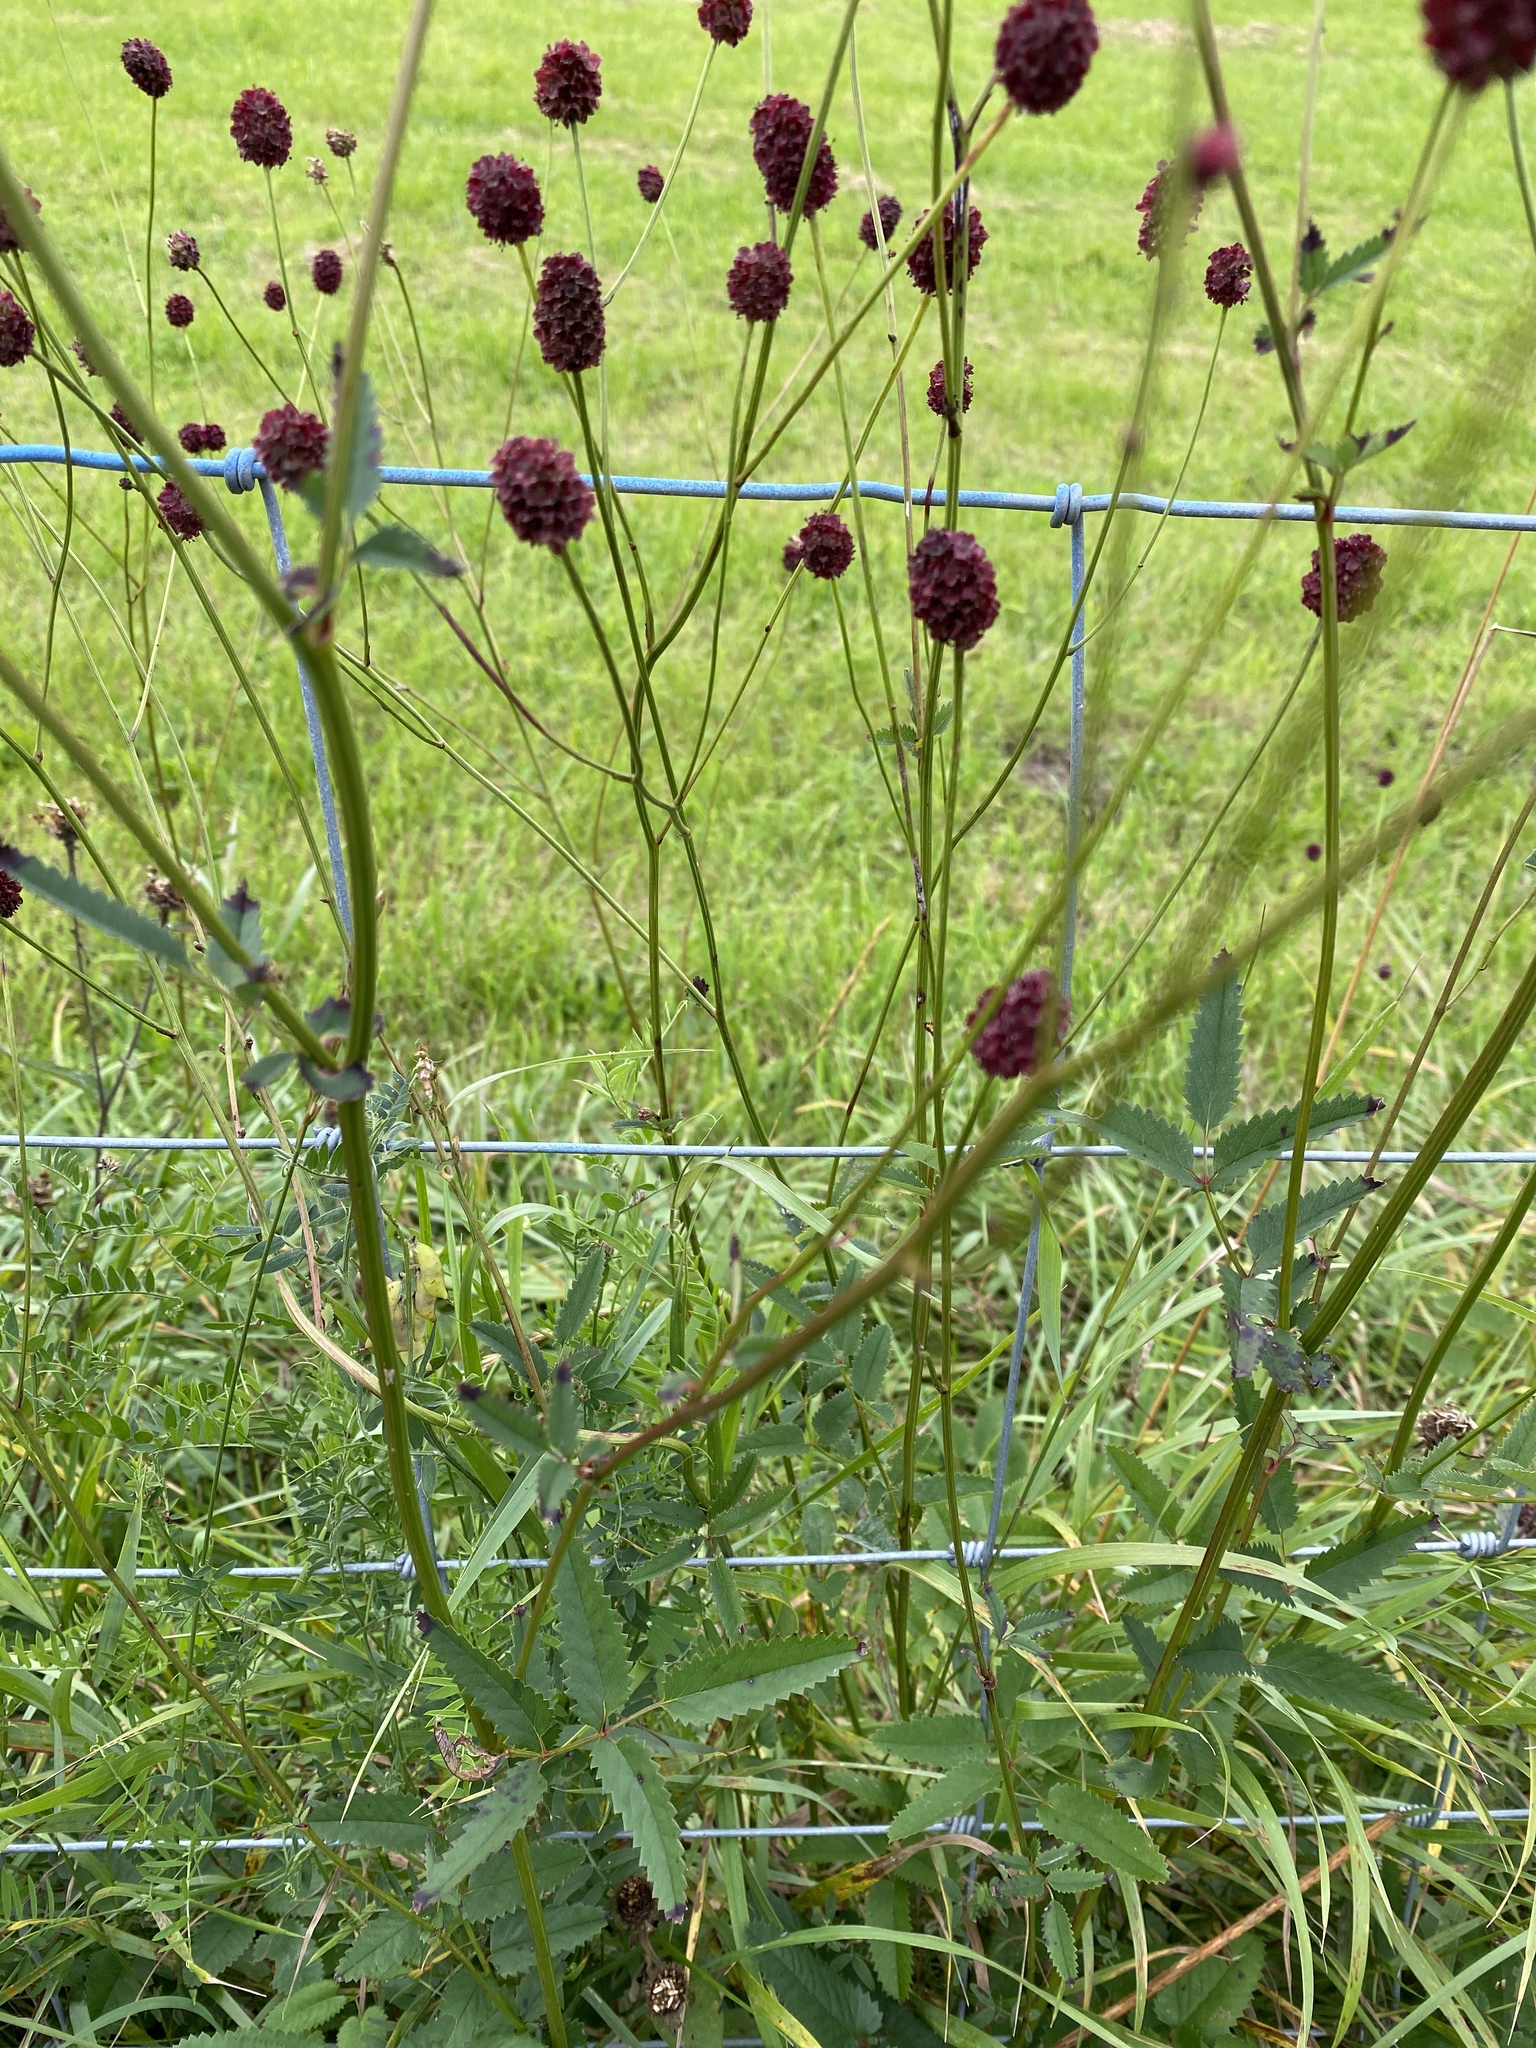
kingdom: Plantae
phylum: Tracheophyta
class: Magnoliopsida
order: Rosales
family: Rosaceae
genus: Sanguisorba
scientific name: Sanguisorba officinalis
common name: Great burnet
